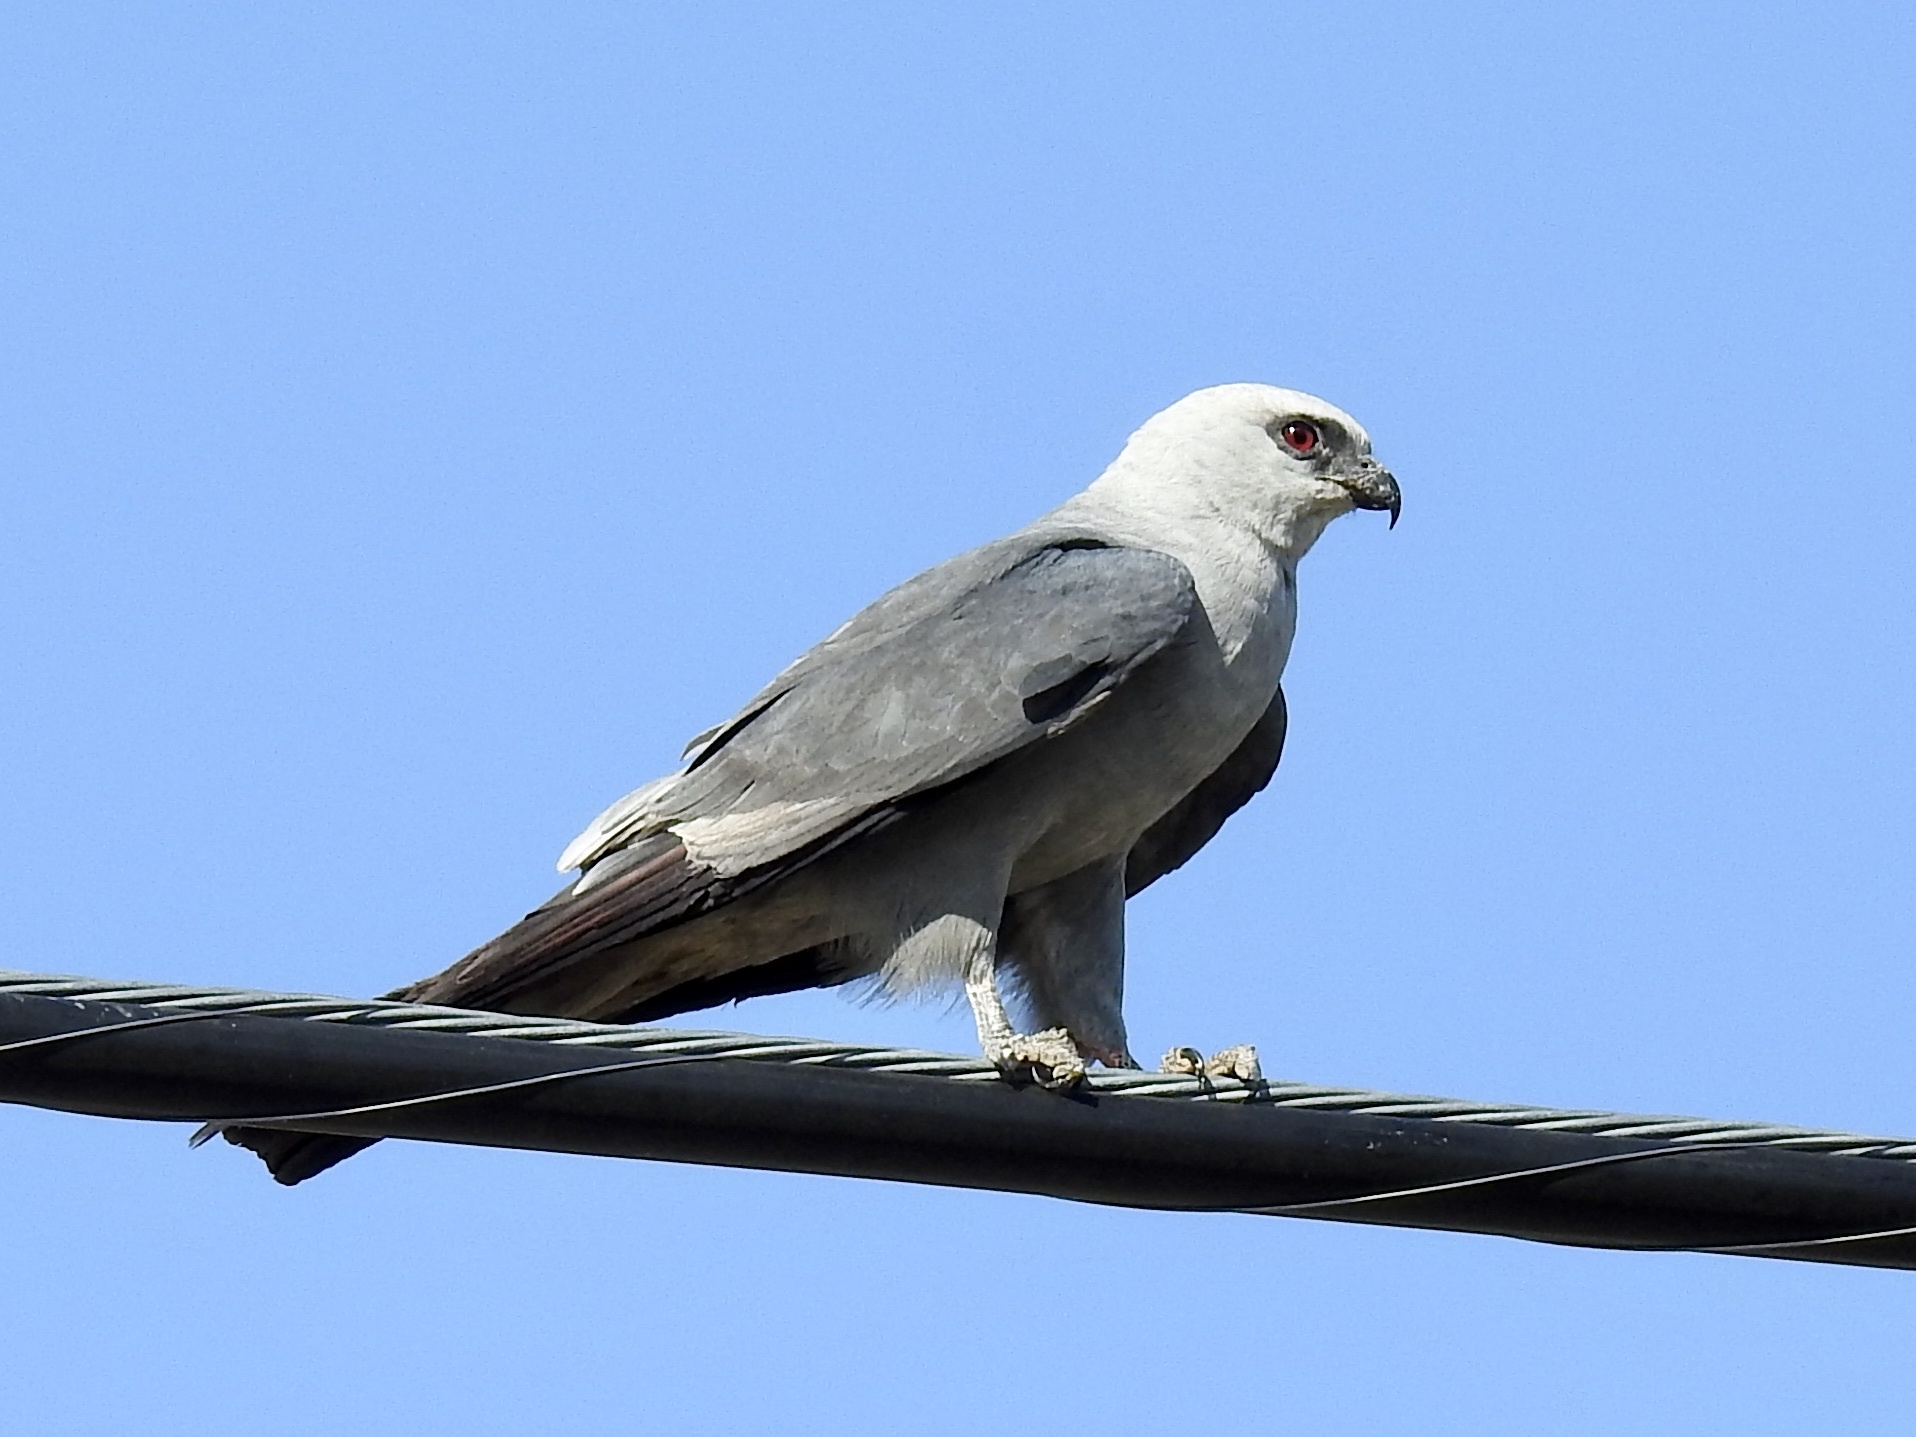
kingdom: Animalia
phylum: Chordata
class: Aves
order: Accipitriformes
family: Accipitridae
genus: Ictinia
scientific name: Ictinia mississippiensis
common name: Mississippi kite
